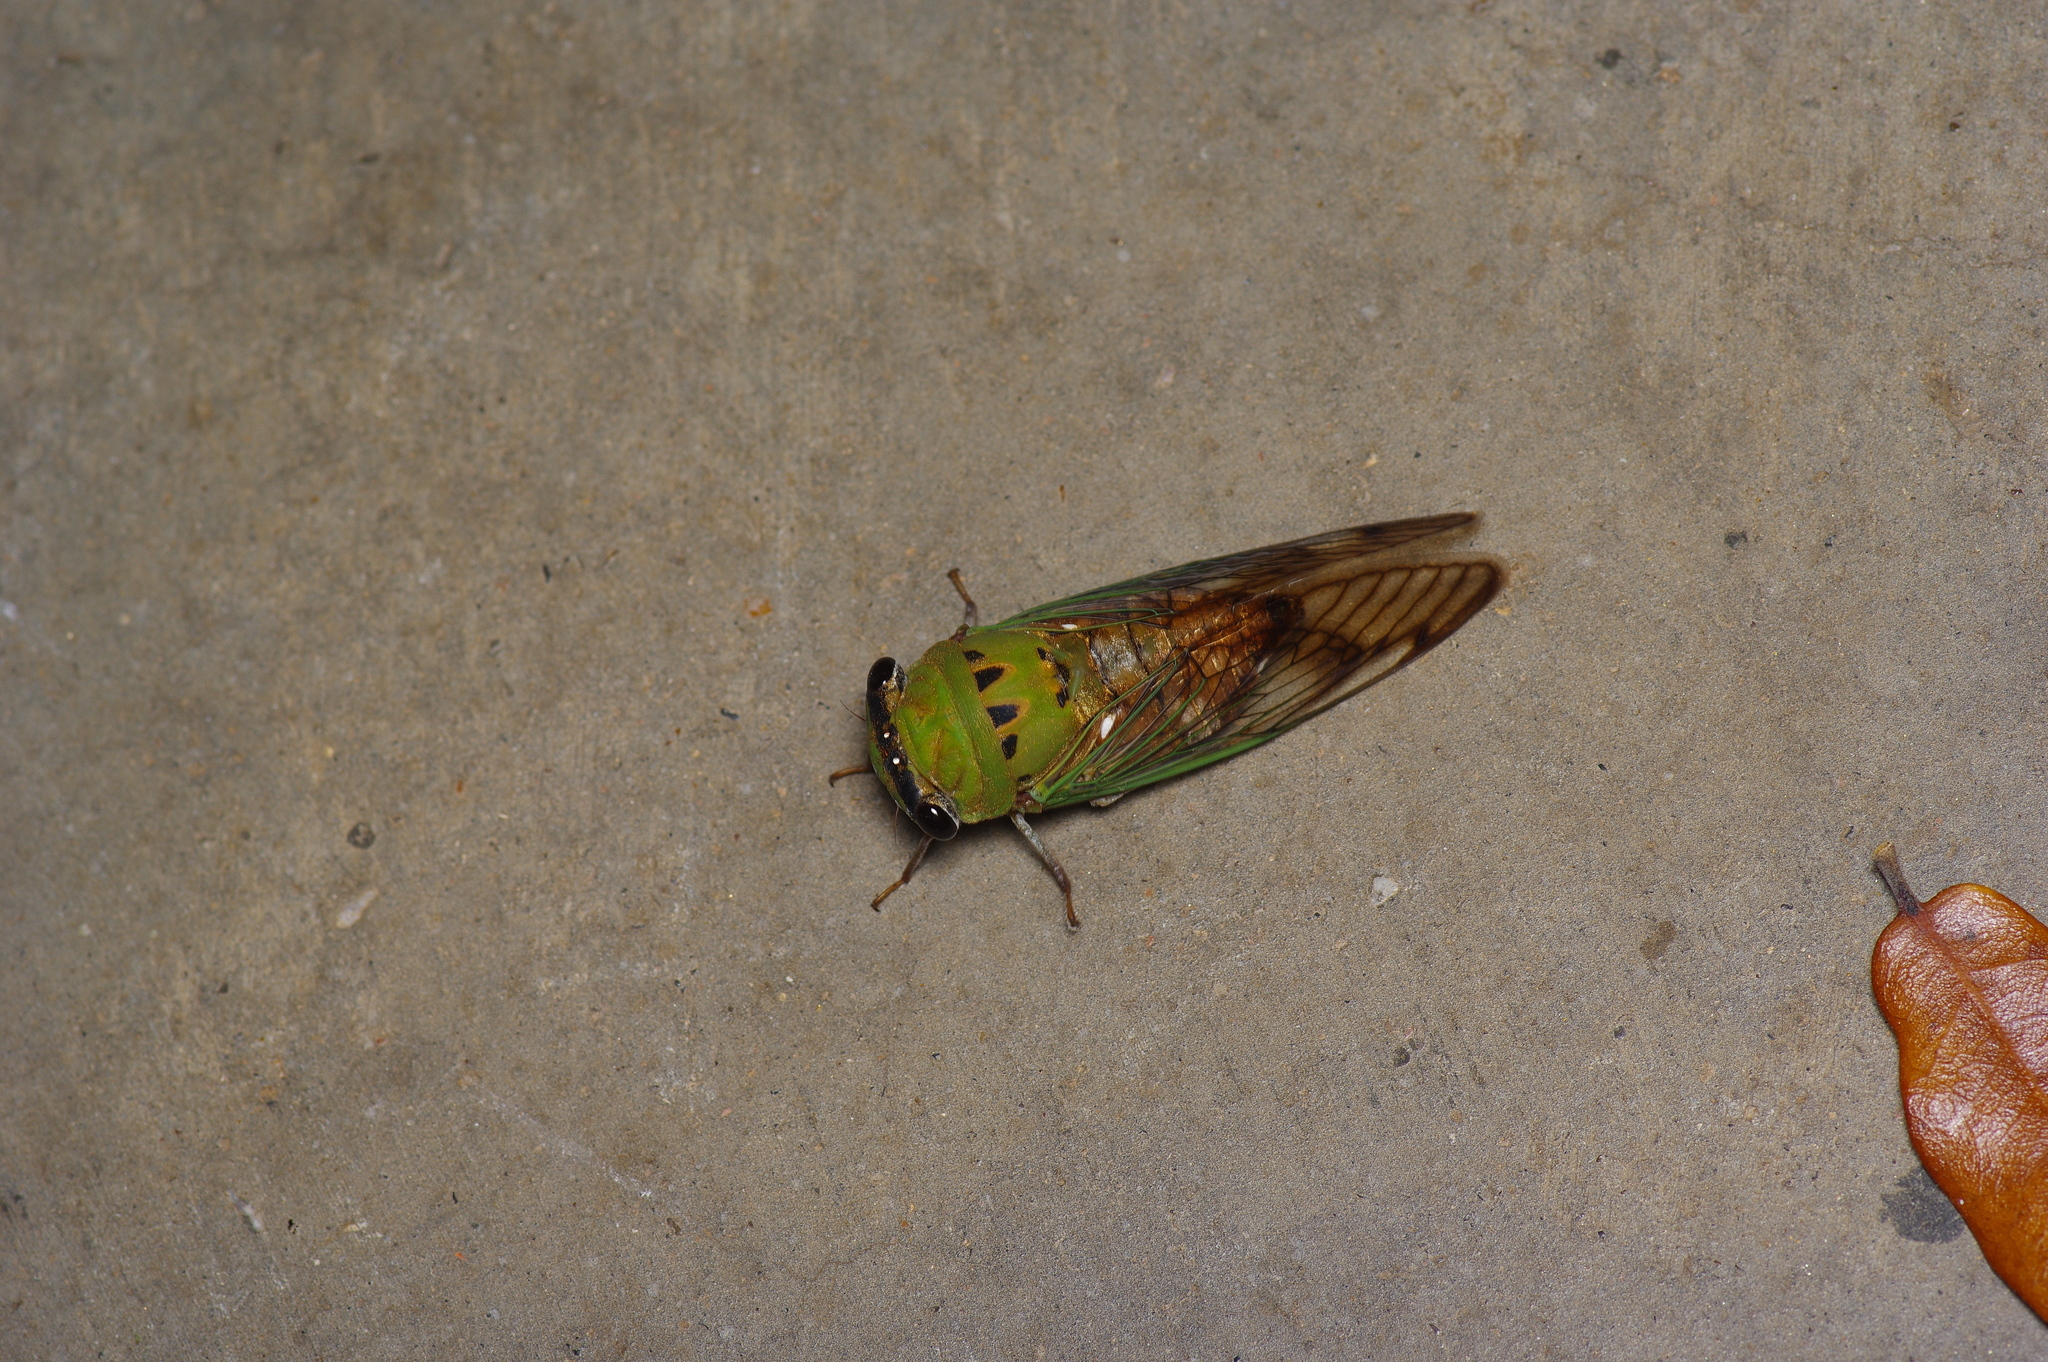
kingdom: Animalia
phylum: Arthropoda
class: Insecta
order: Hemiptera
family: Cicadidae
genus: Neotibicen
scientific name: Neotibicen superbus
